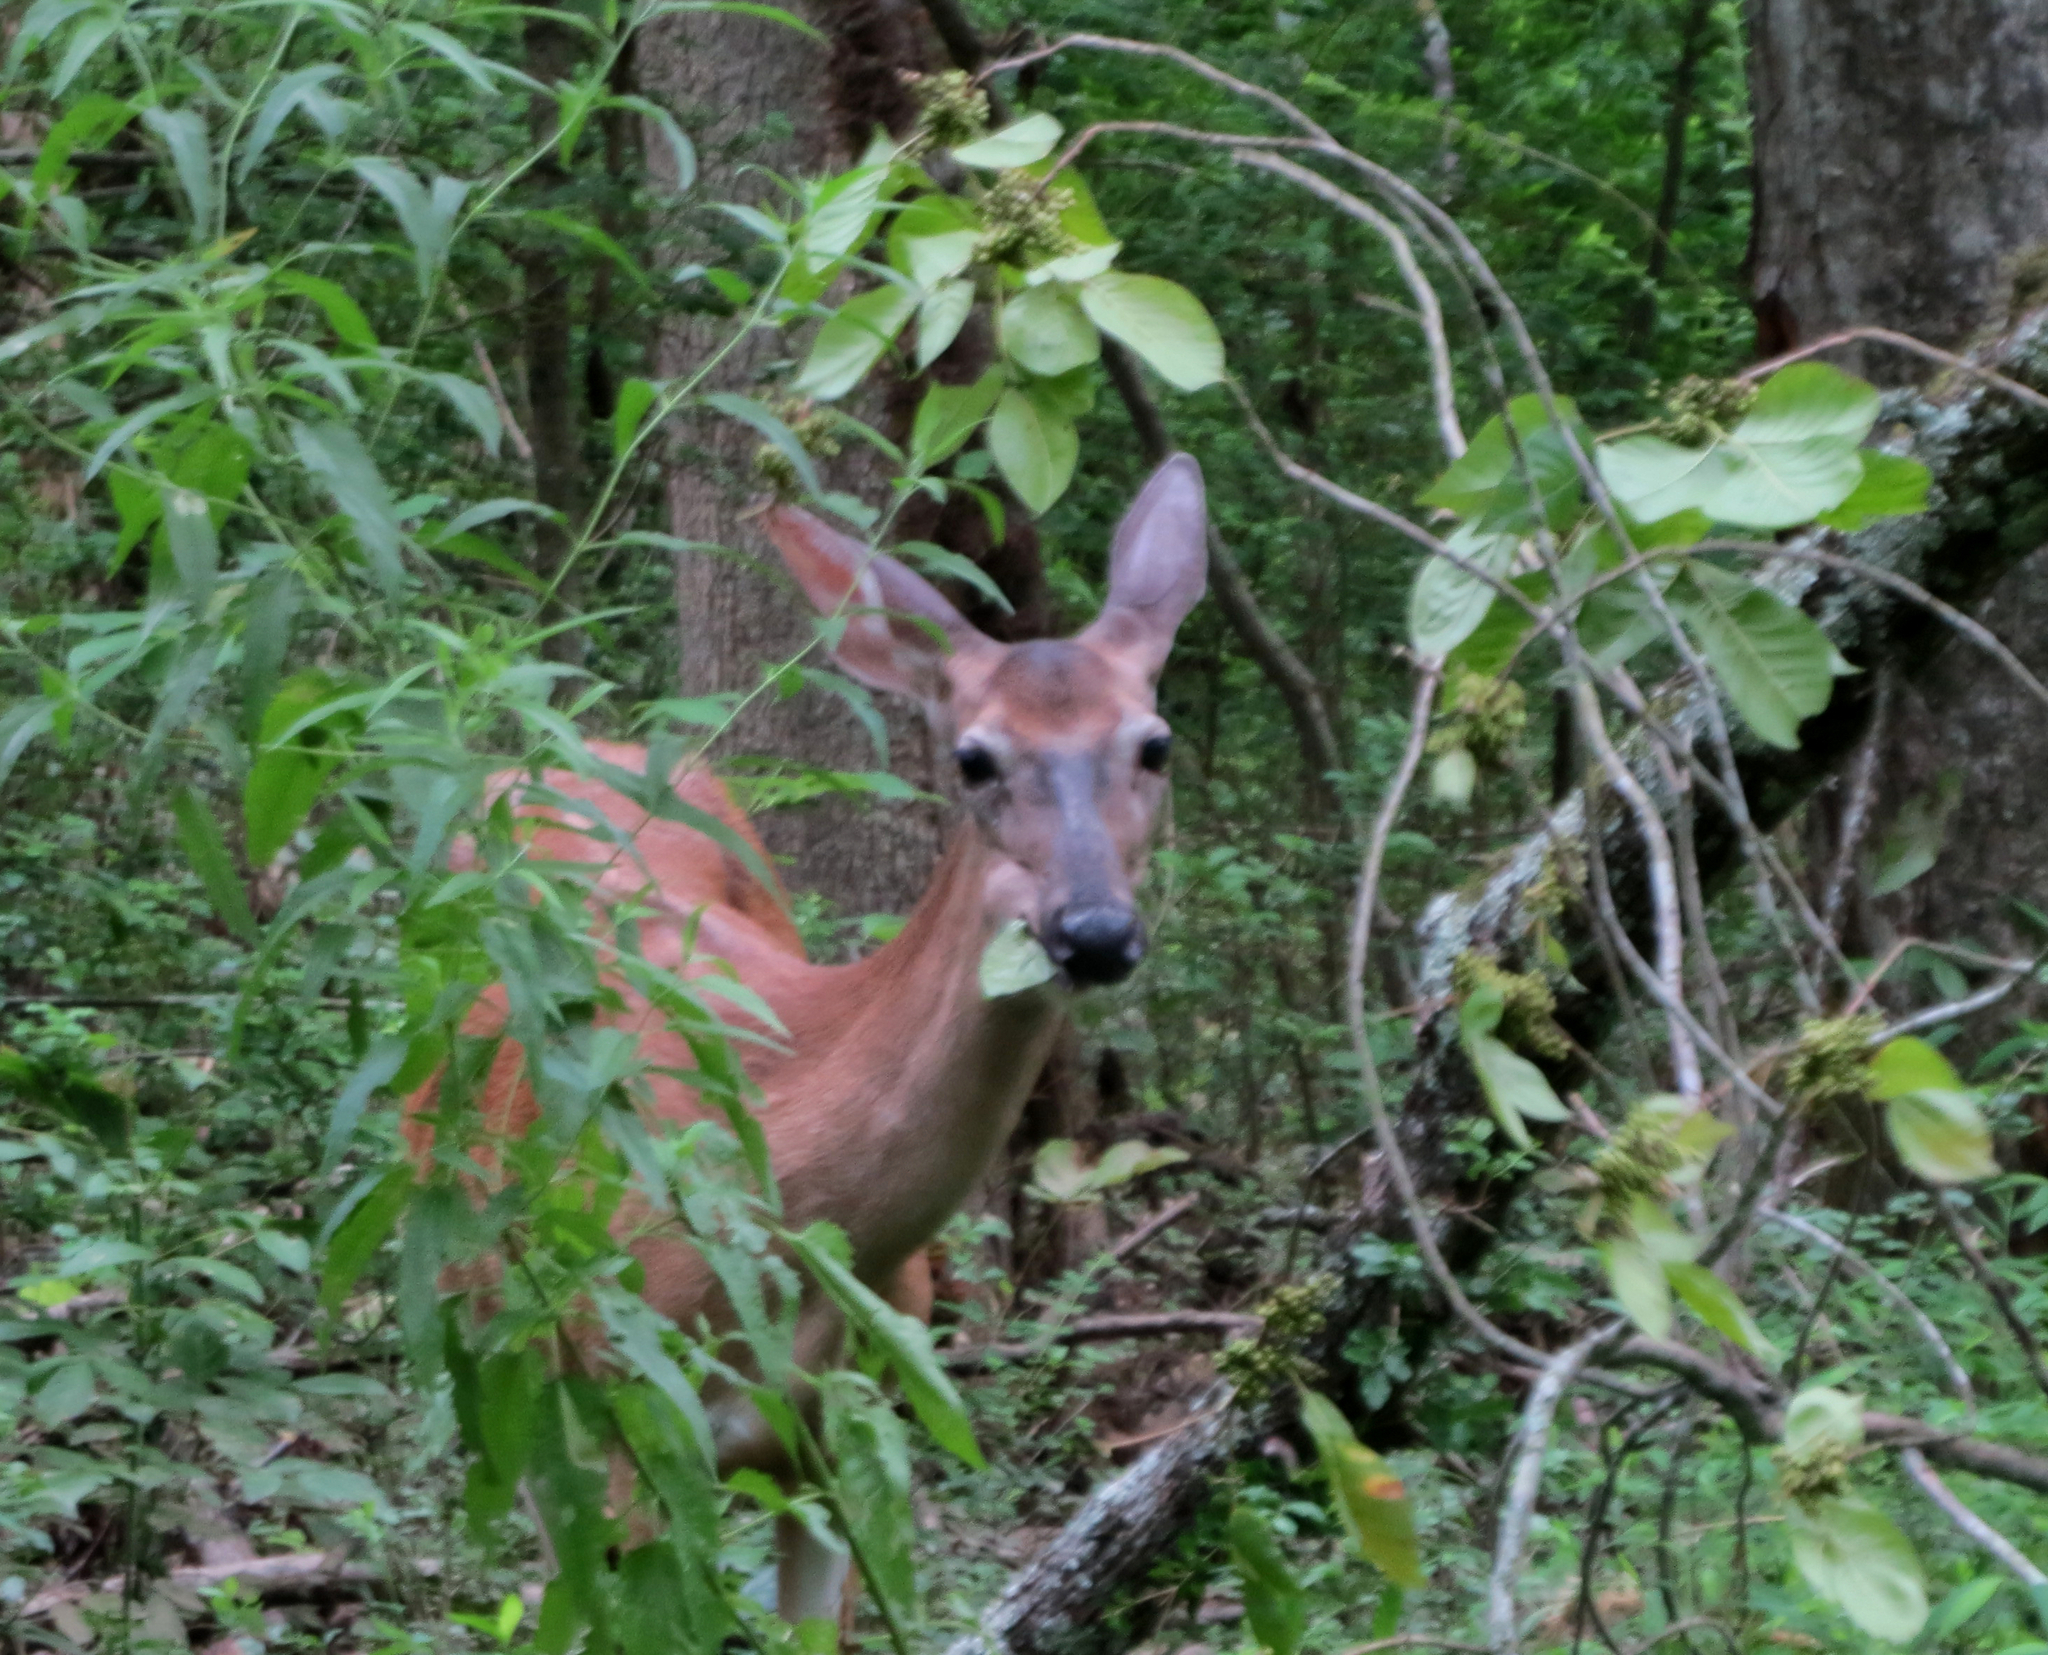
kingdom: Animalia
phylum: Chordata
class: Mammalia
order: Artiodactyla
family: Cervidae
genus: Odocoileus
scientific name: Odocoileus virginianus
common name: White-tailed deer
